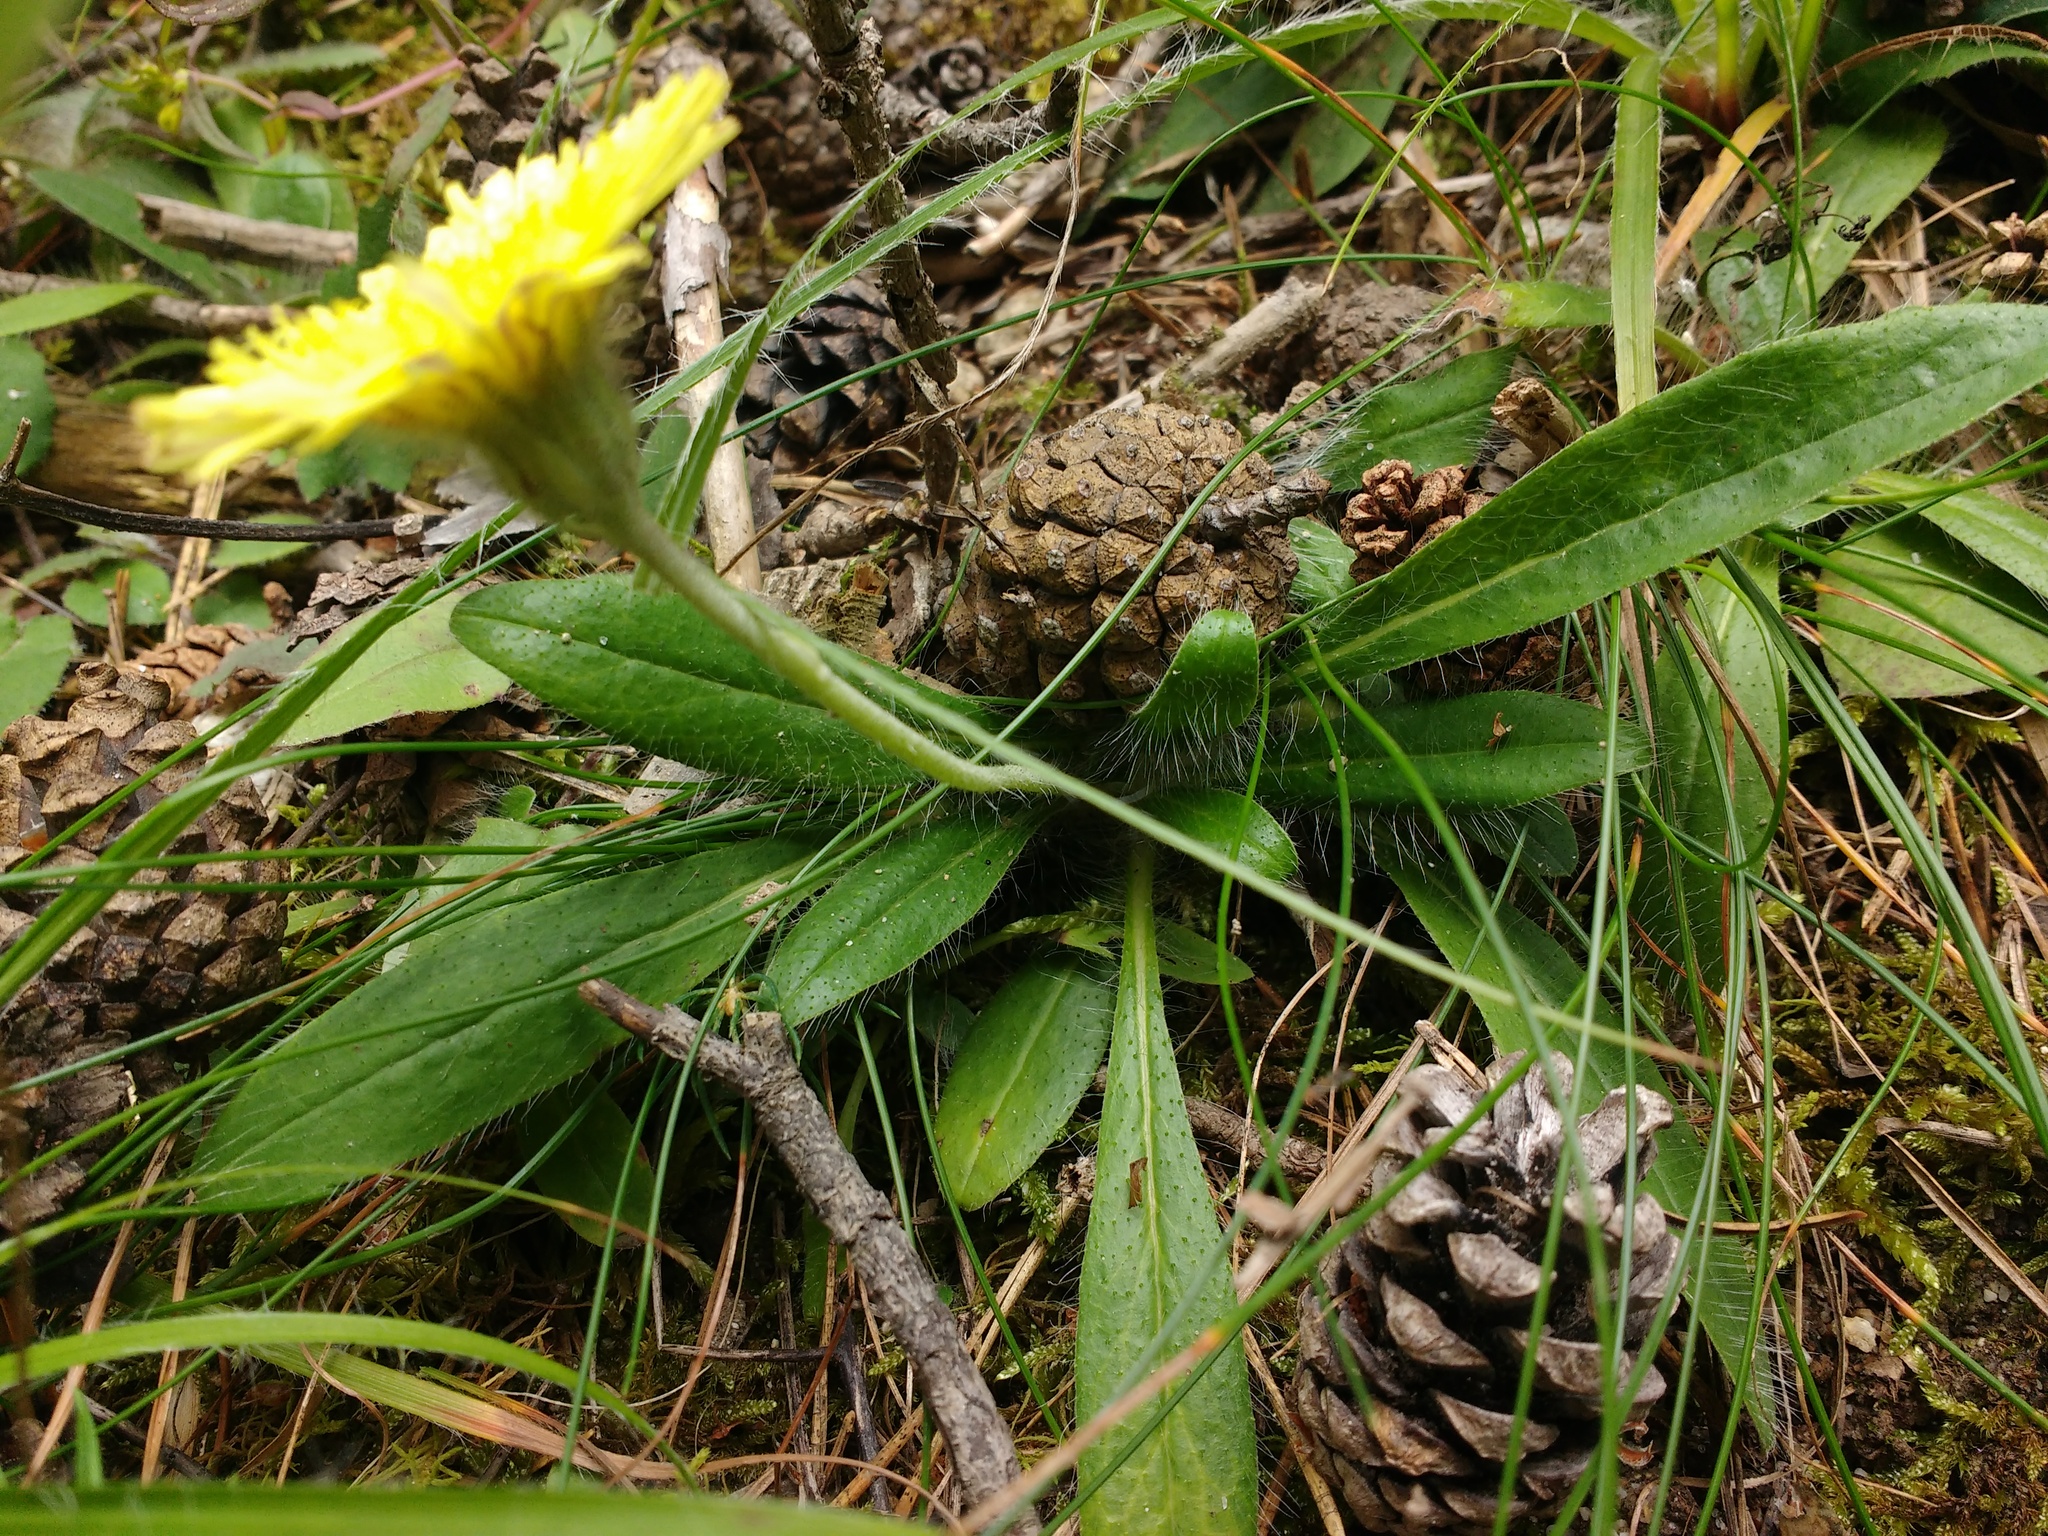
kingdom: Plantae
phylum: Tracheophyta
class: Magnoliopsida
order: Asterales
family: Asteraceae
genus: Pilosella
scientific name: Pilosella officinarum
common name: Mouse-ear hawkweed
